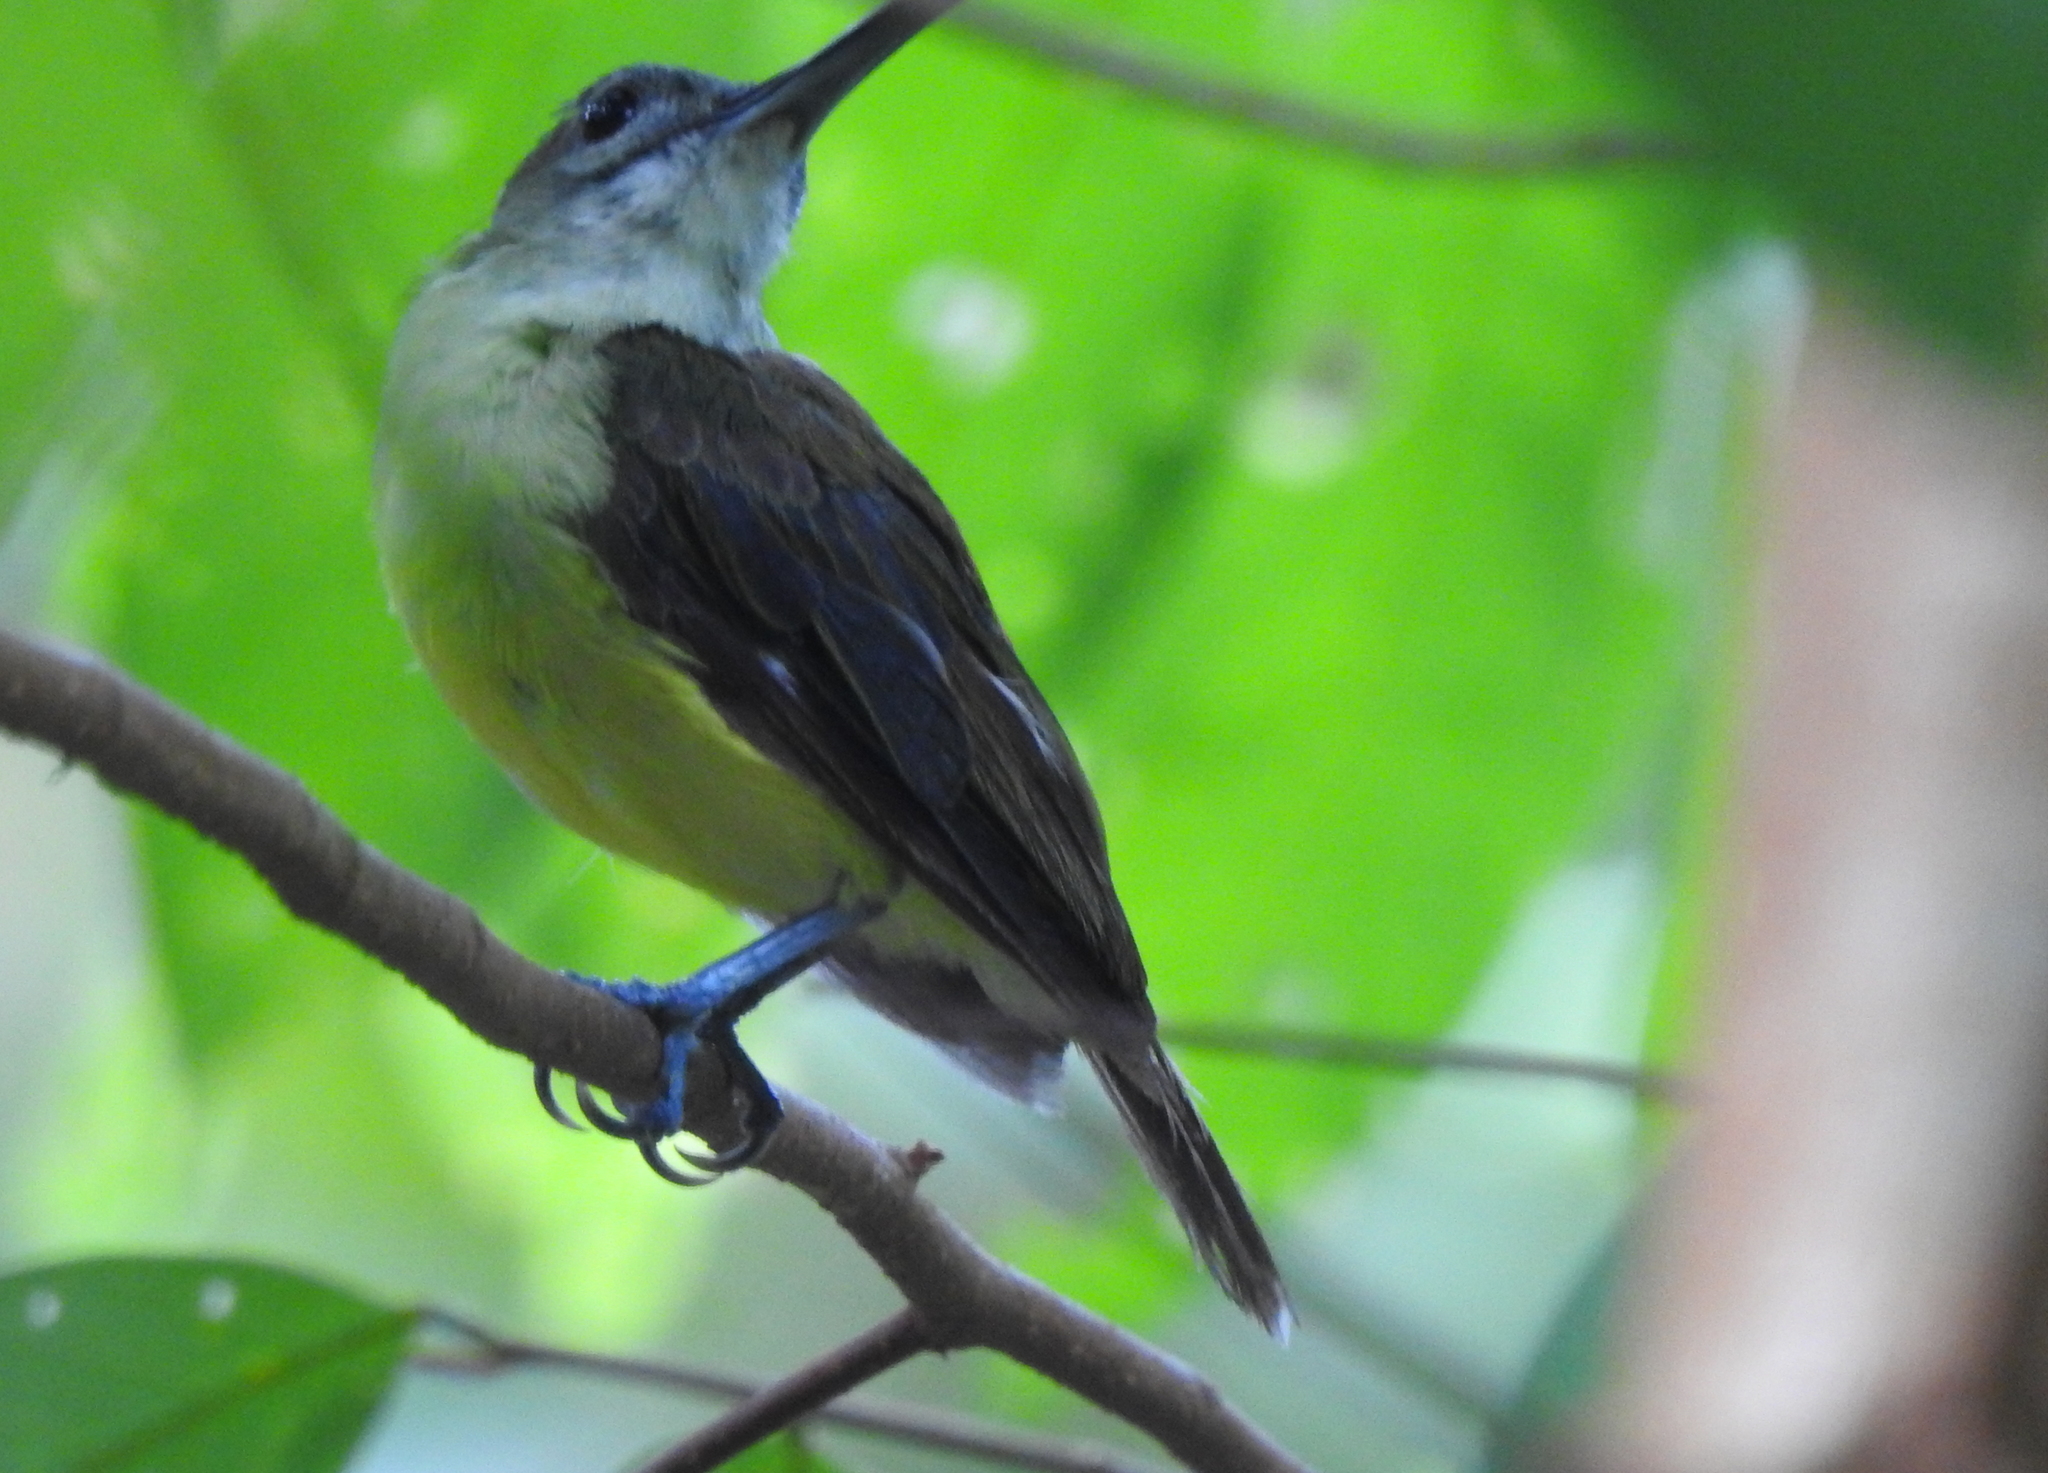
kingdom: Animalia
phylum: Chordata
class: Aves
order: Passeriformes
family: Nectariniidae
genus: Arachnothera
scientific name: Arachnothera longirostra
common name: Little spiderhunter
